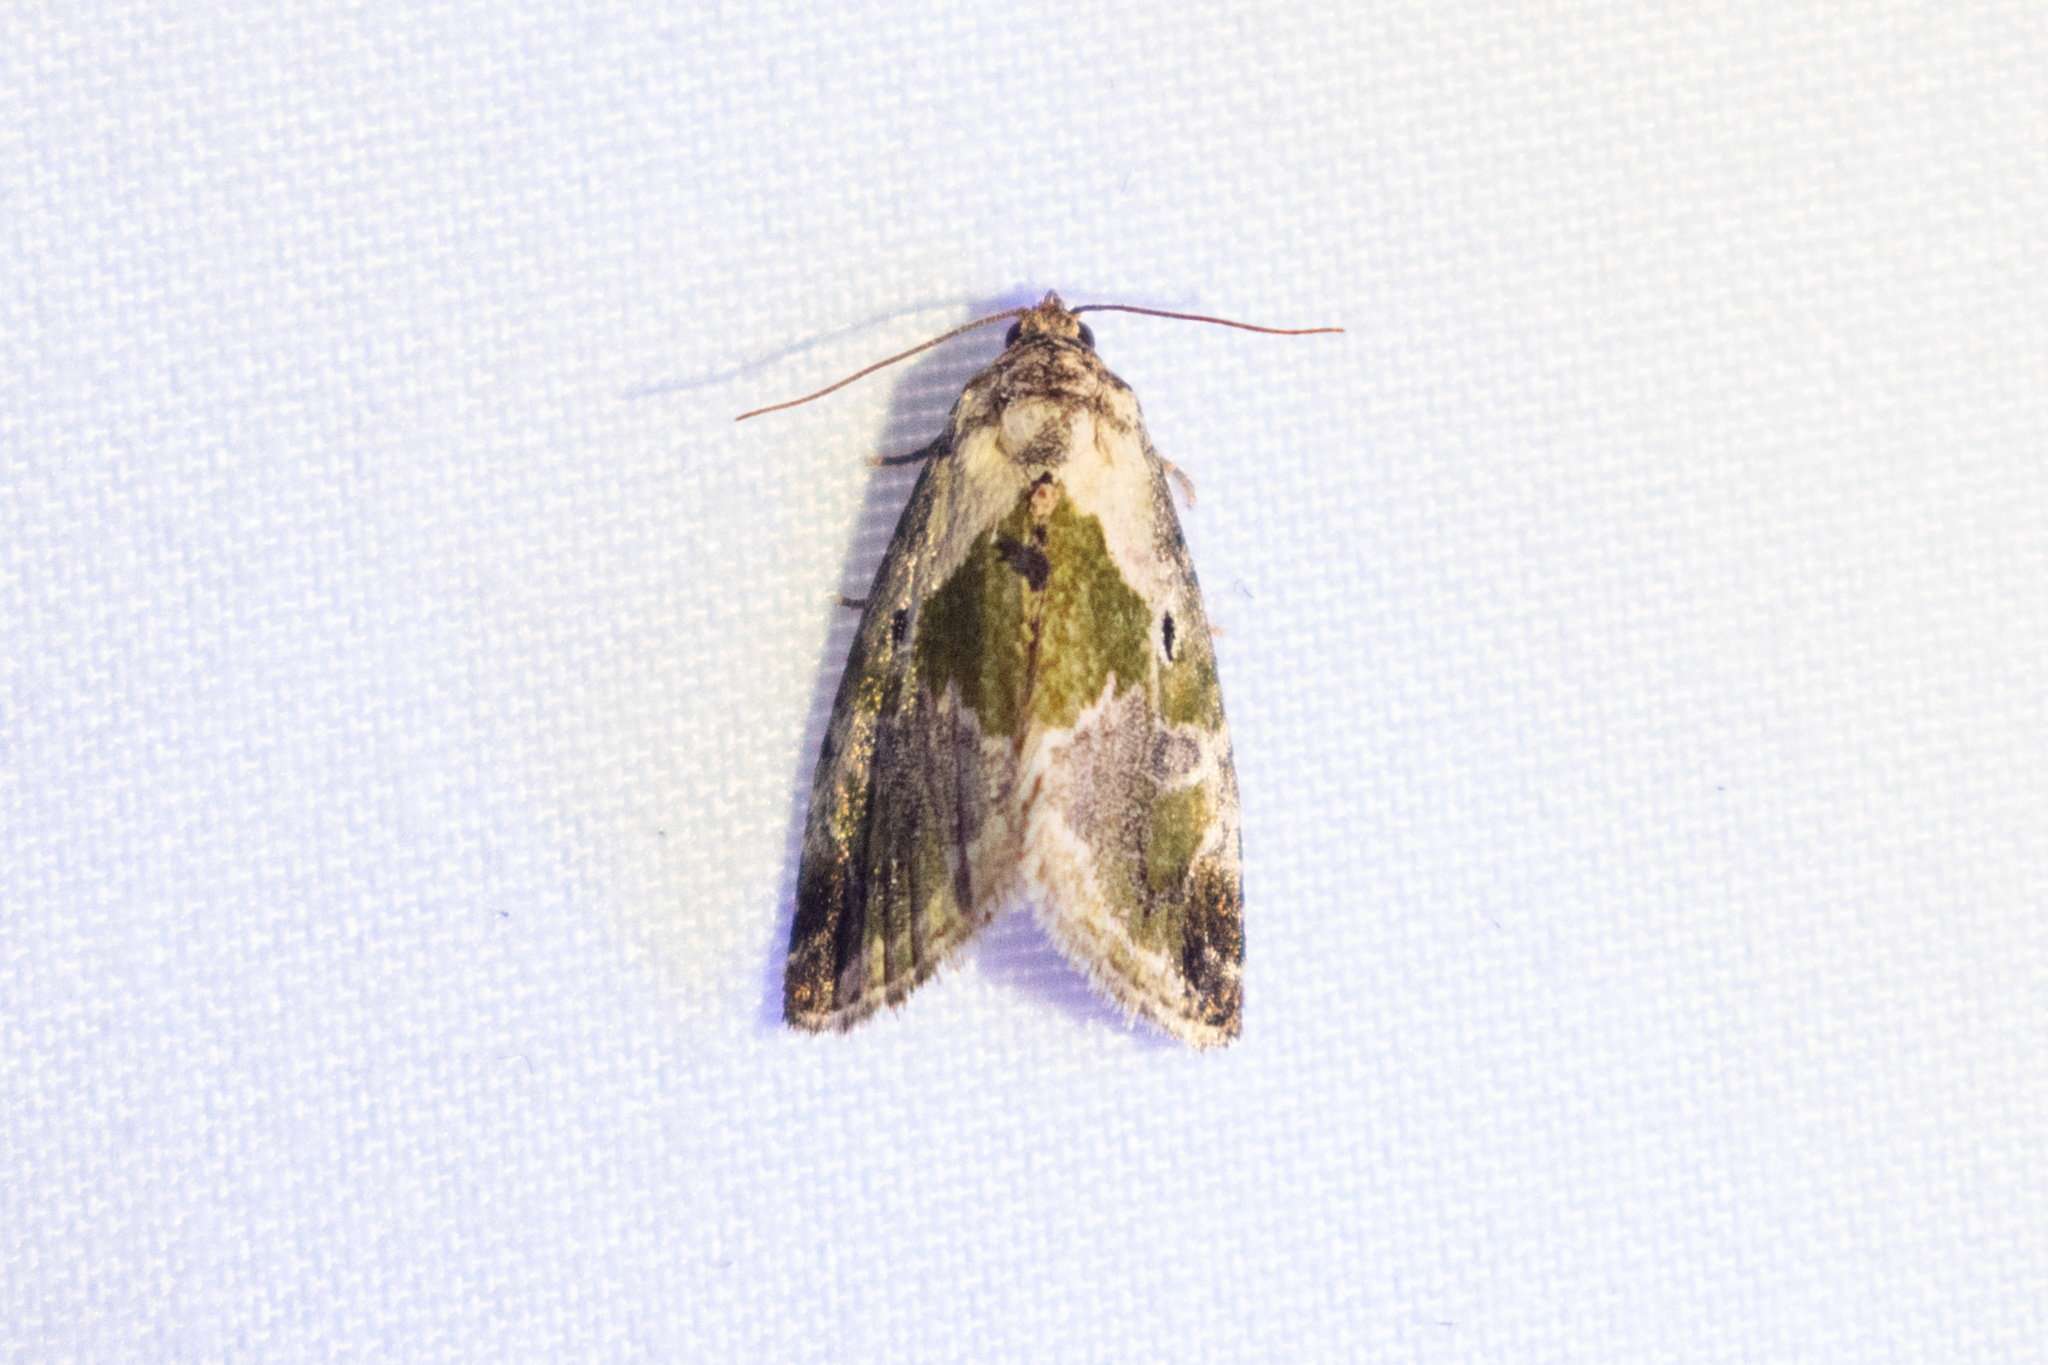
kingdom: Animalia
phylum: Arthropoda
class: Insecta
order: Lepidoptera
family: Noctuidae
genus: Maliattha
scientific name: Maliattha synochitis
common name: Black-dotted glyph
